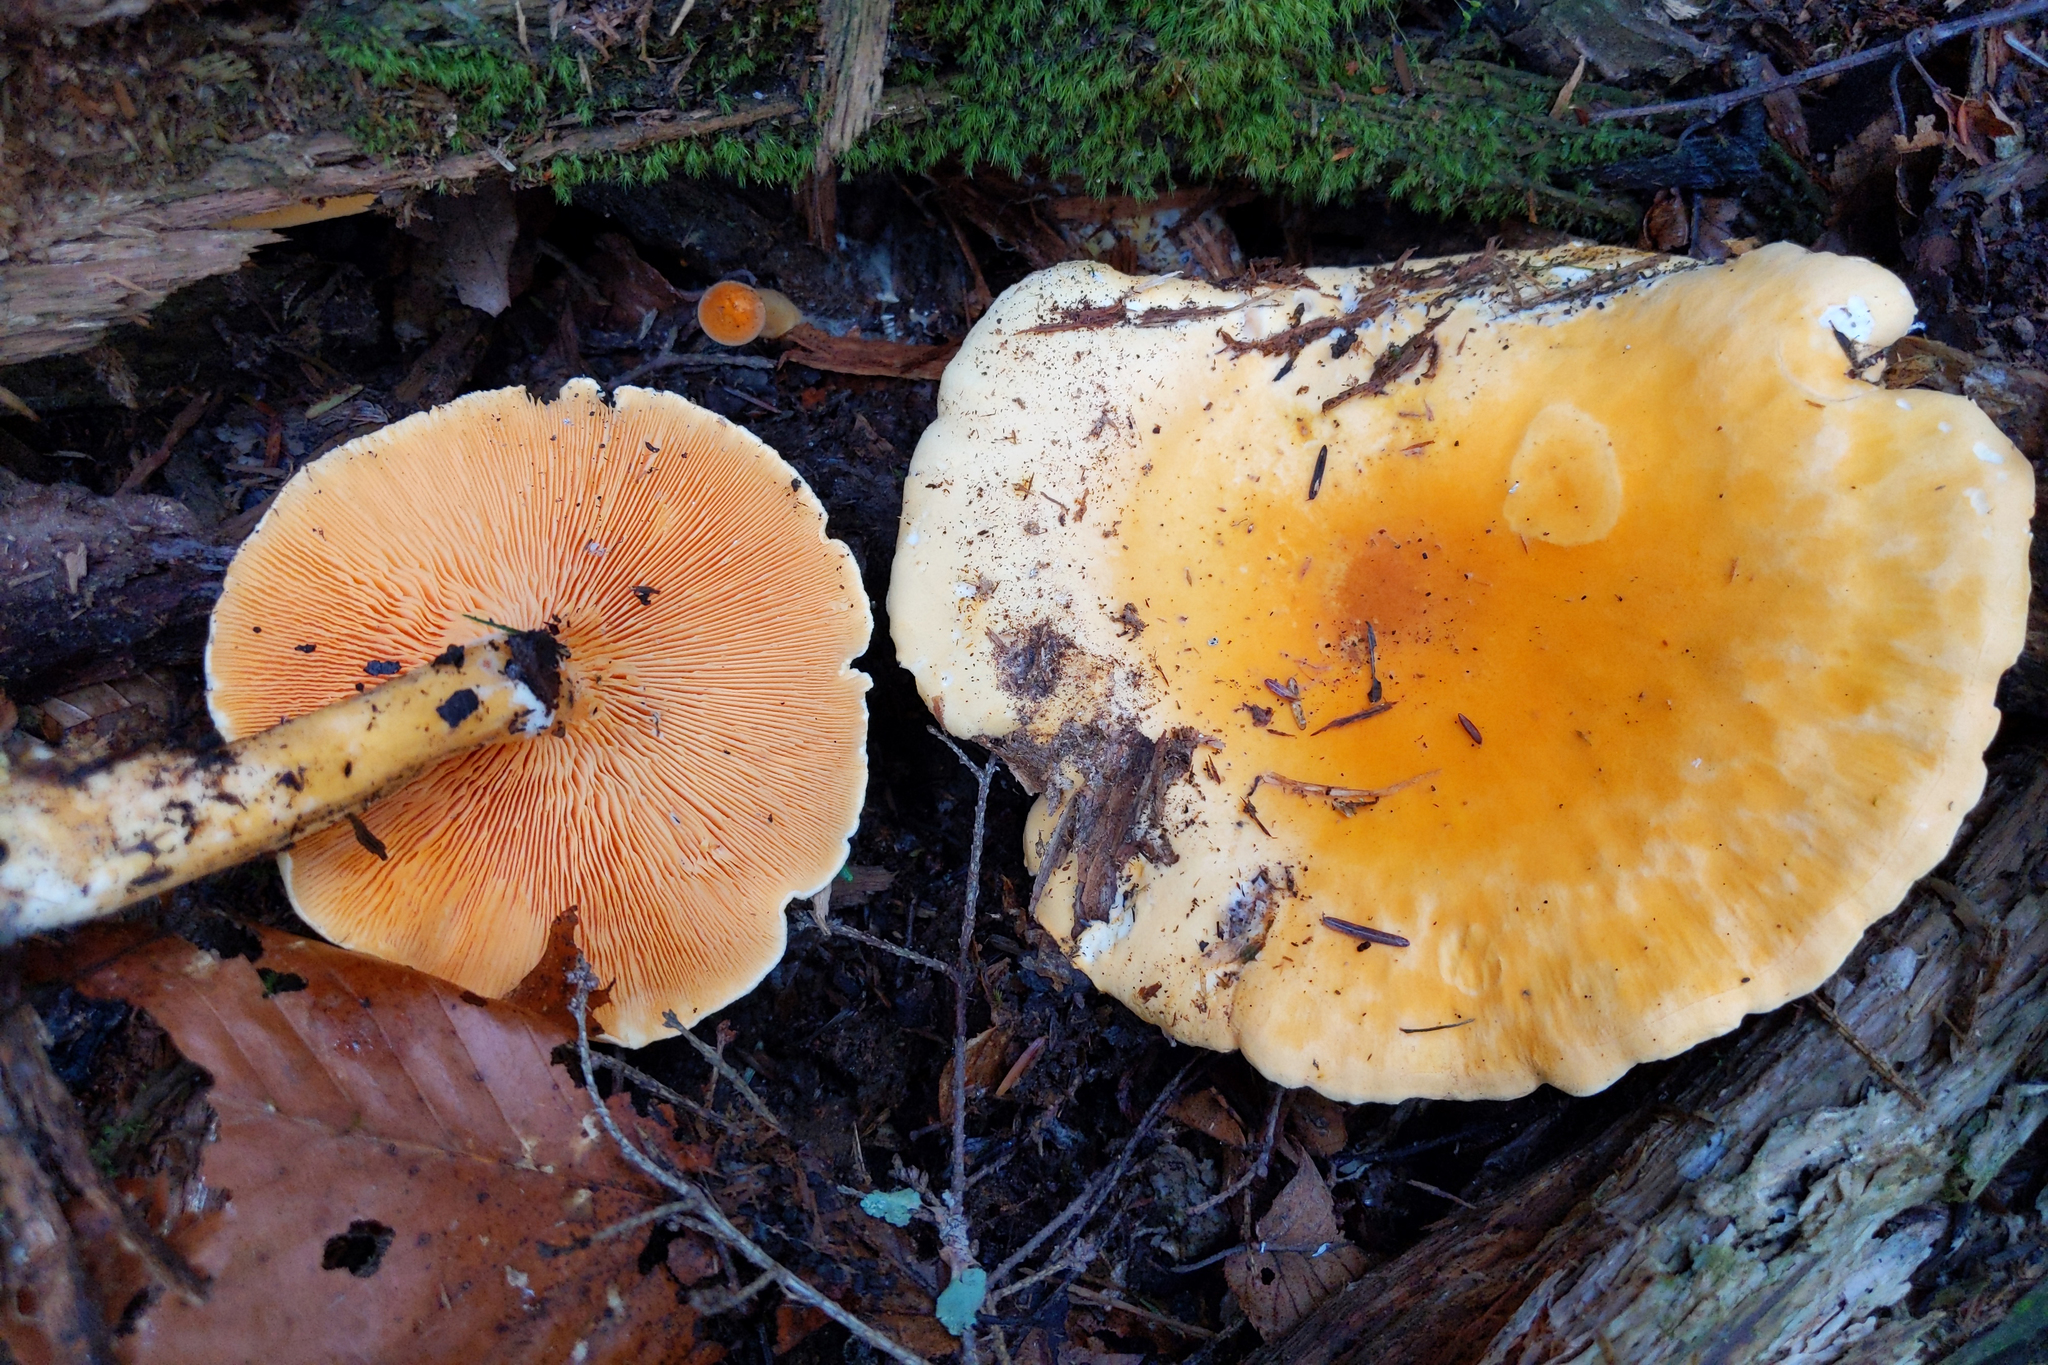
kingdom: Fungi
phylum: Basidiomycota
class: Agaricomycetes
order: Boletales
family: Hygrophoropsidaceae
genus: Hygrophoropsis
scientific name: Hygrophoropsis aurantiaca
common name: False chanterelle
